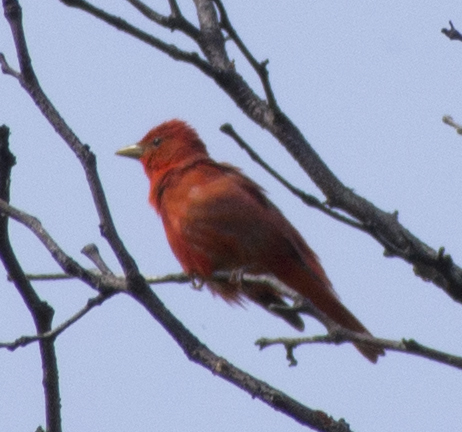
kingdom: Animalia
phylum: Chordata
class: Aves
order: Passeriformes
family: Cardinalidae
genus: Piranga
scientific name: Piranga rubra
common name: Summer tanager
